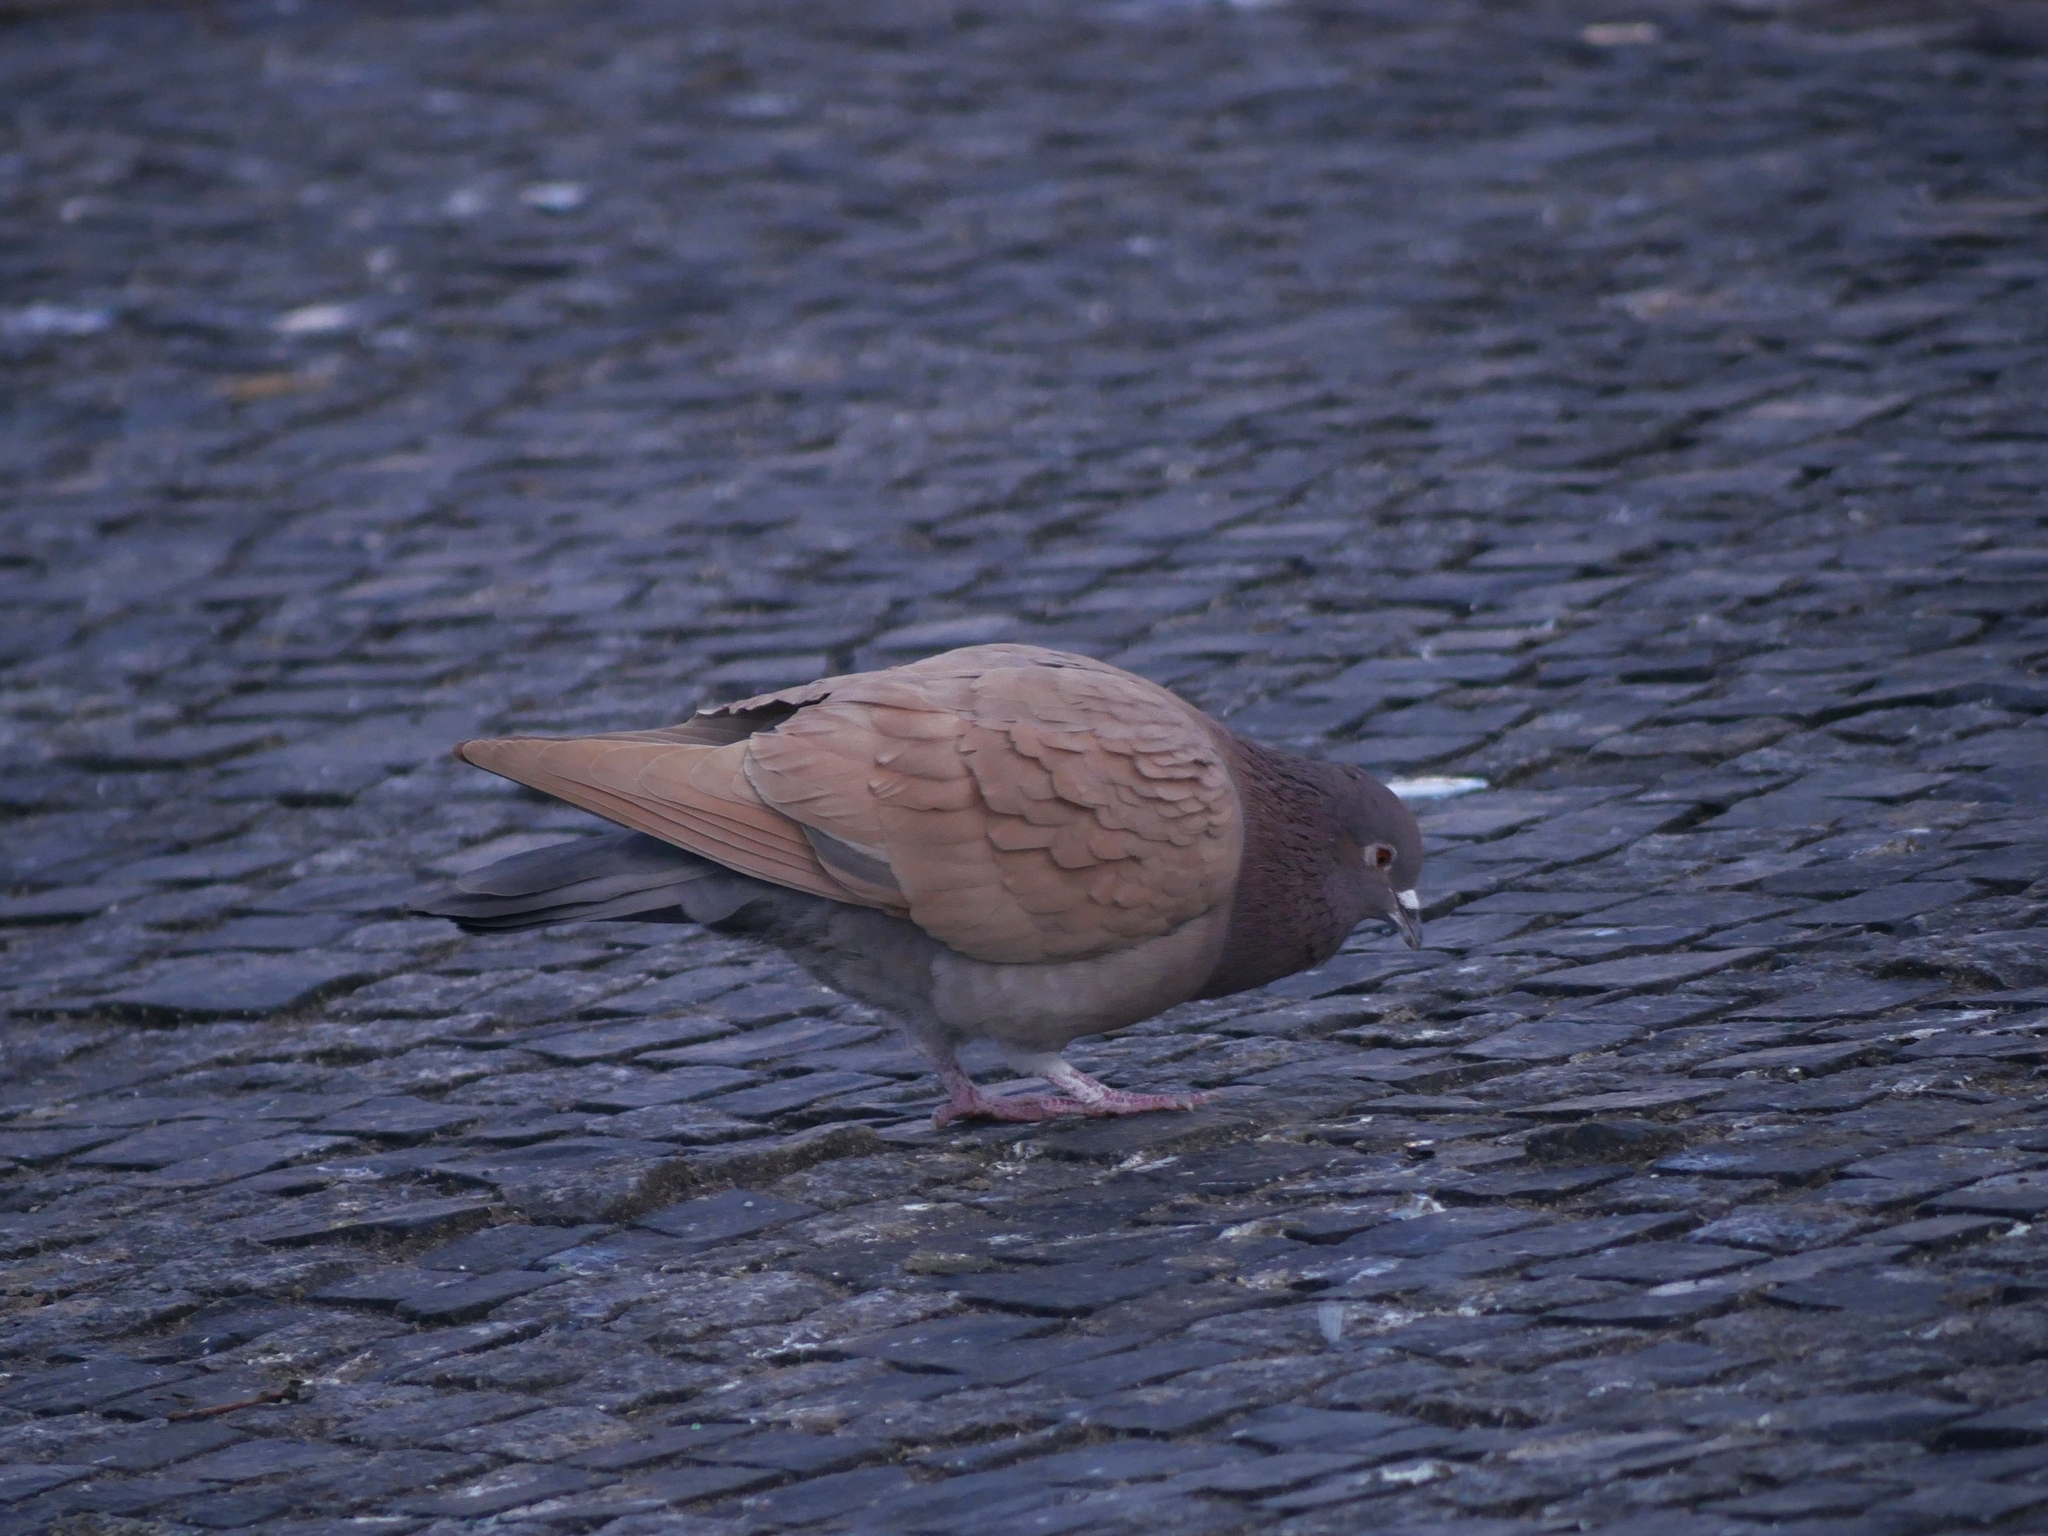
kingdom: Animalia
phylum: Chordata
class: Aves
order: Columbiformes
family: Columbidae
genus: Columba
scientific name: Columba livia
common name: Rock pigeon
